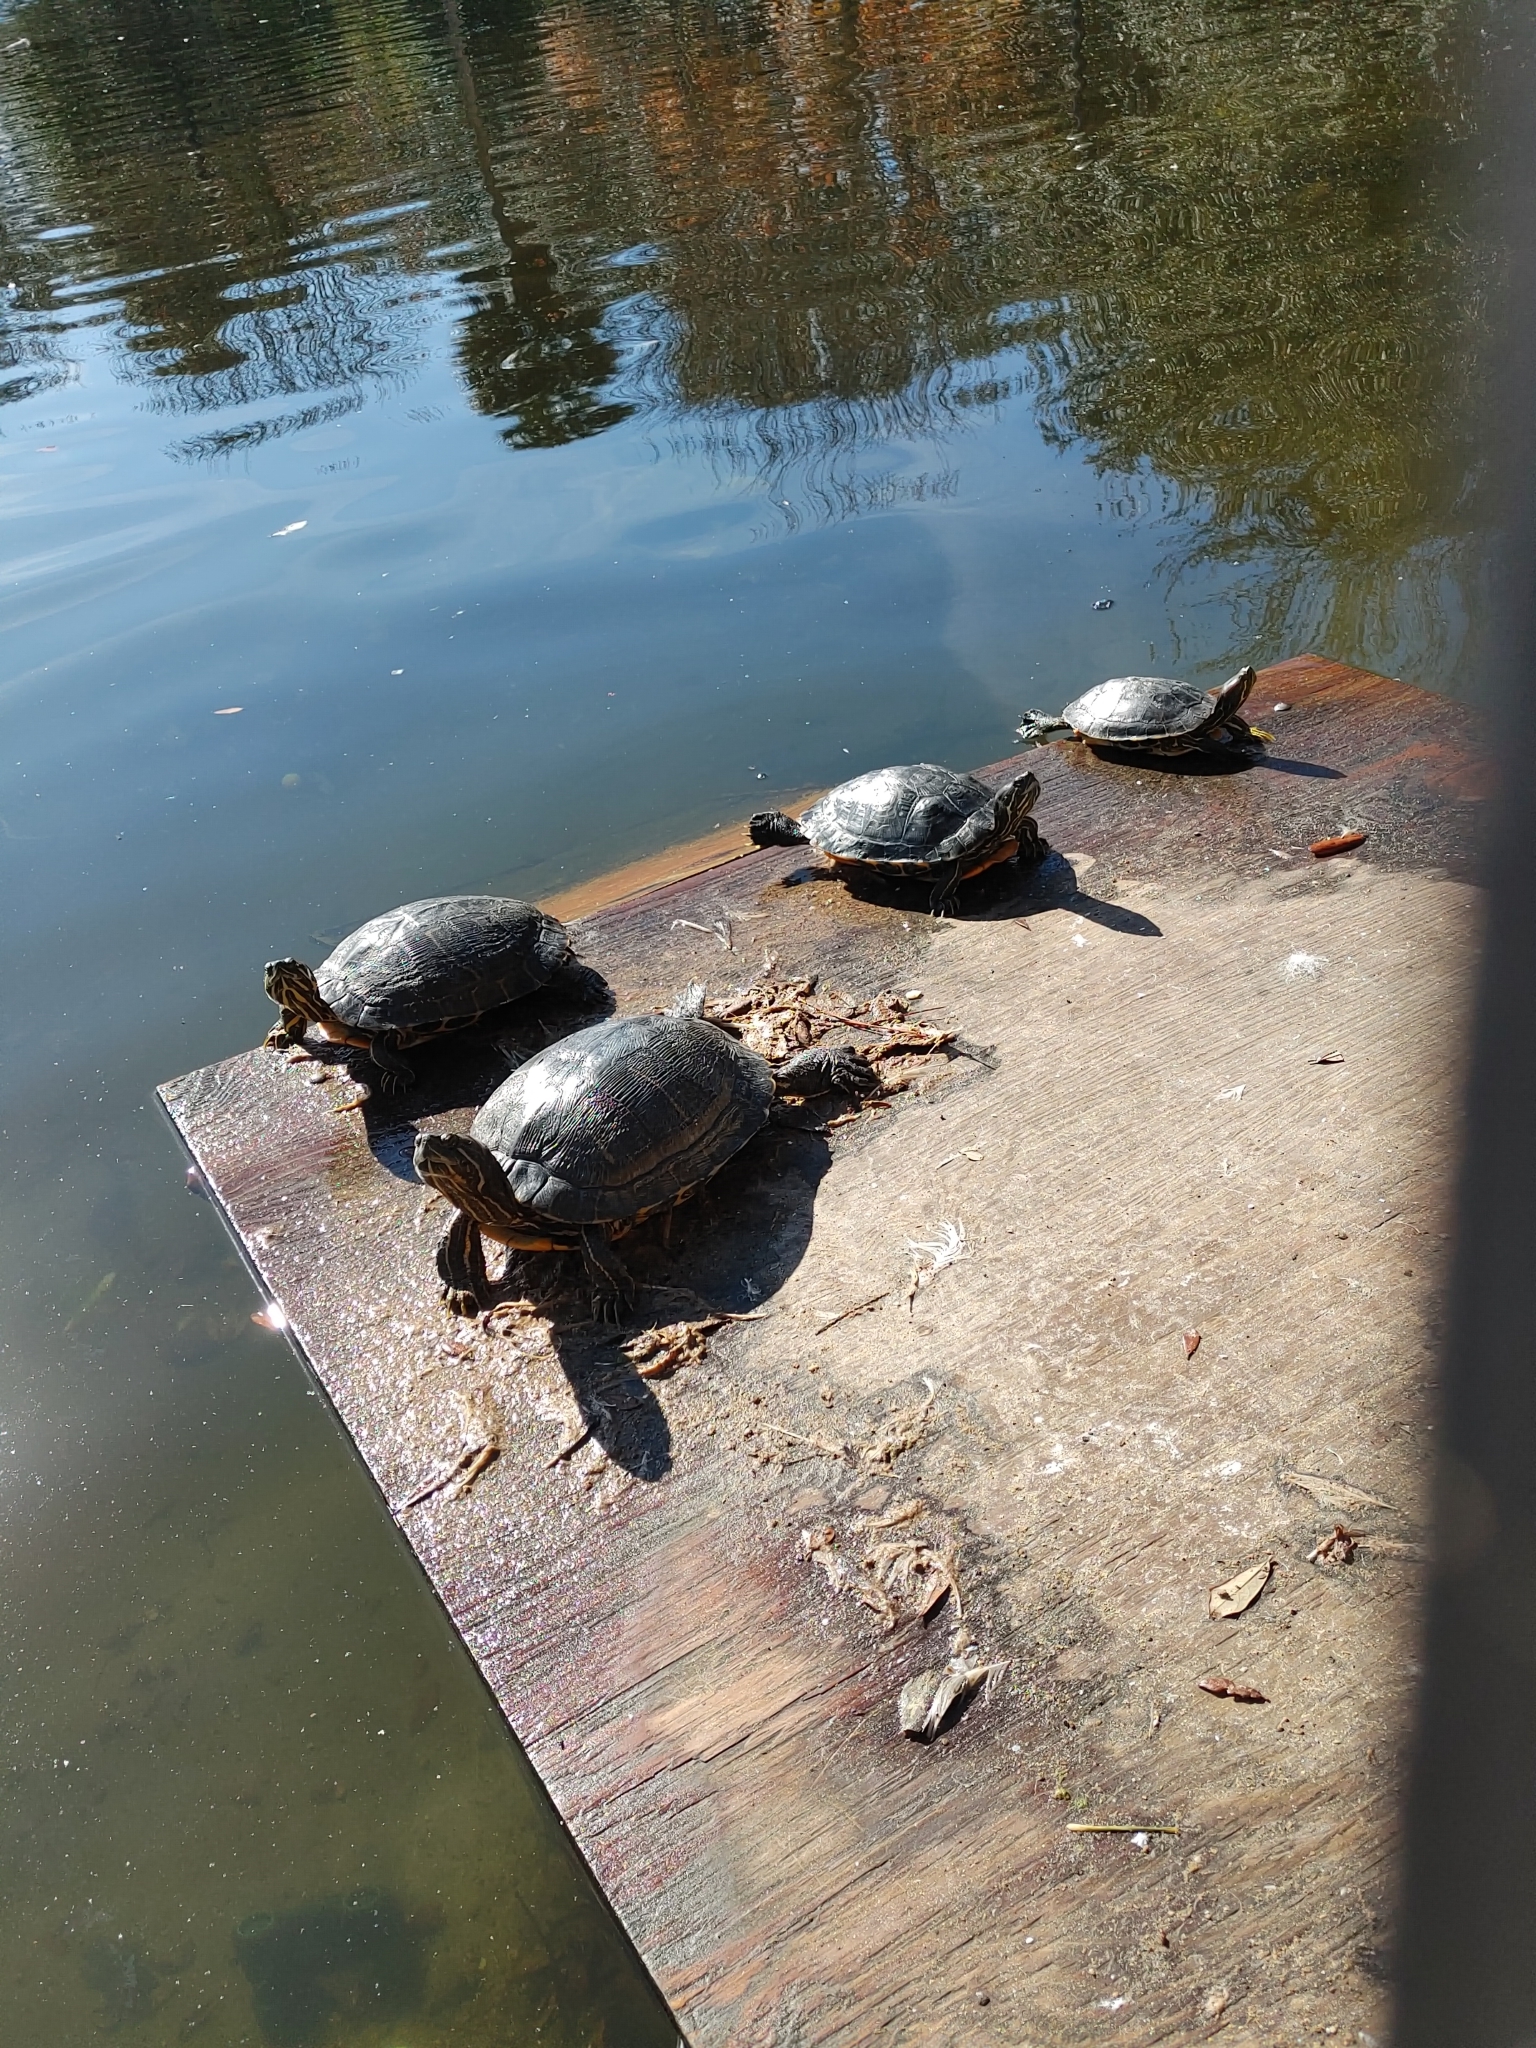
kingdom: Animalia
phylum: Chordata
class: Testudines
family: Emydidae
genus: Trachemys
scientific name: Trachemys scripta
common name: Slider
